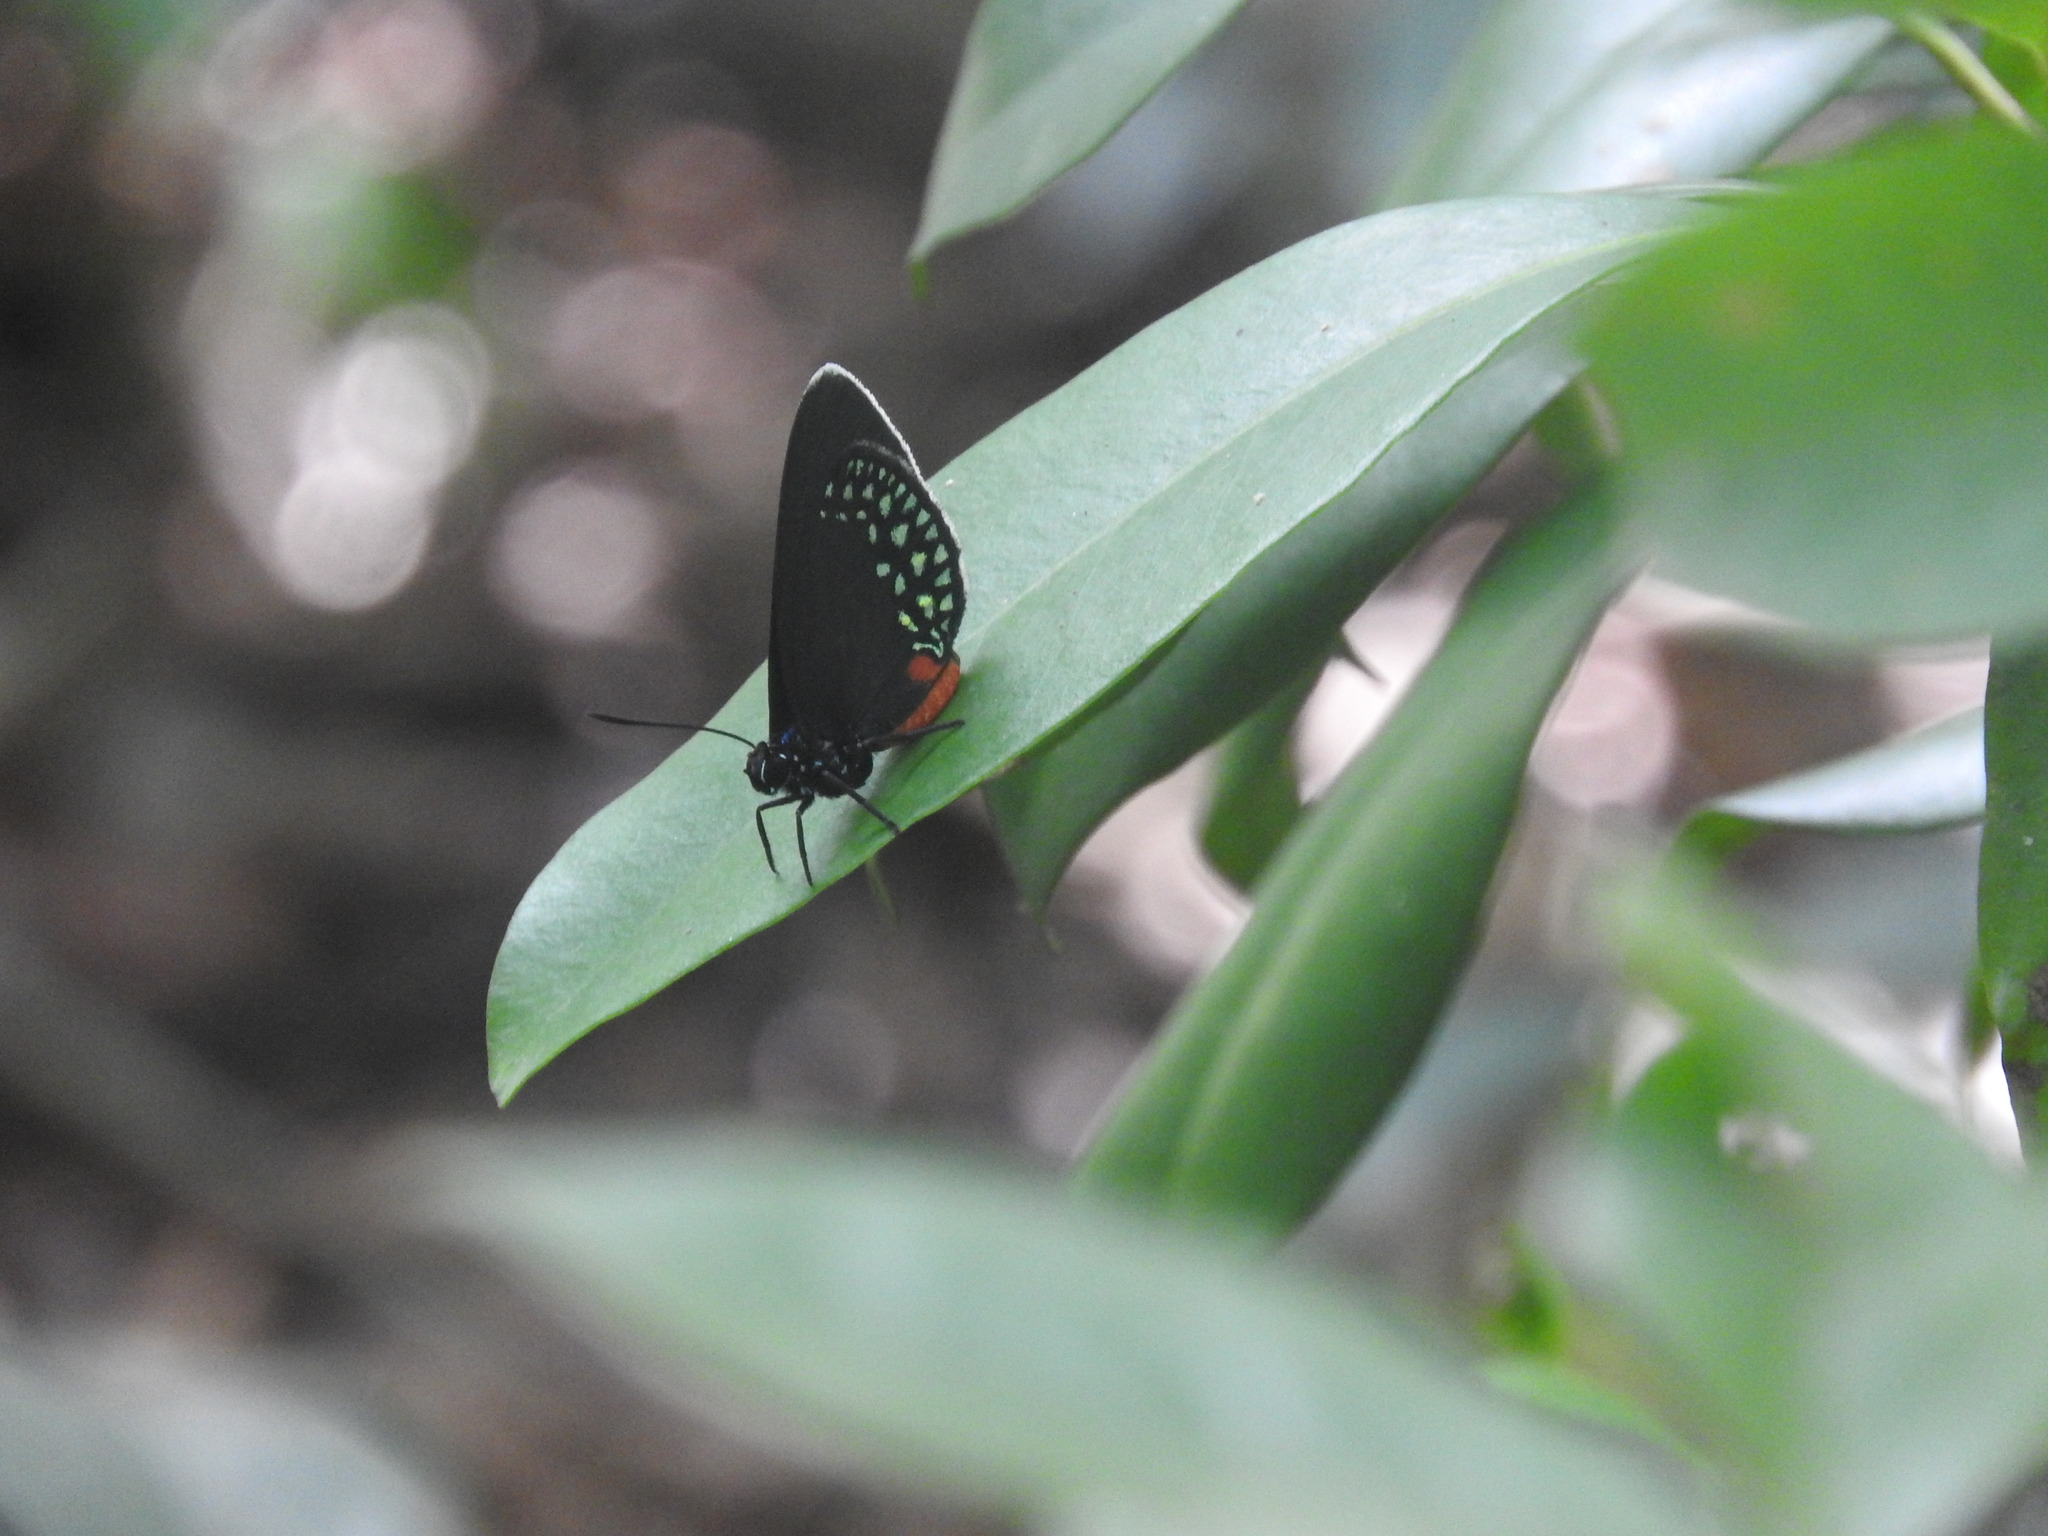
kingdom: Animalia
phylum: Arthropoda
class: Insecta
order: Lepidoptera
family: Lycaenidae
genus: Eumaeus
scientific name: Eumaeus toxea
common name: Mexican cycadian
